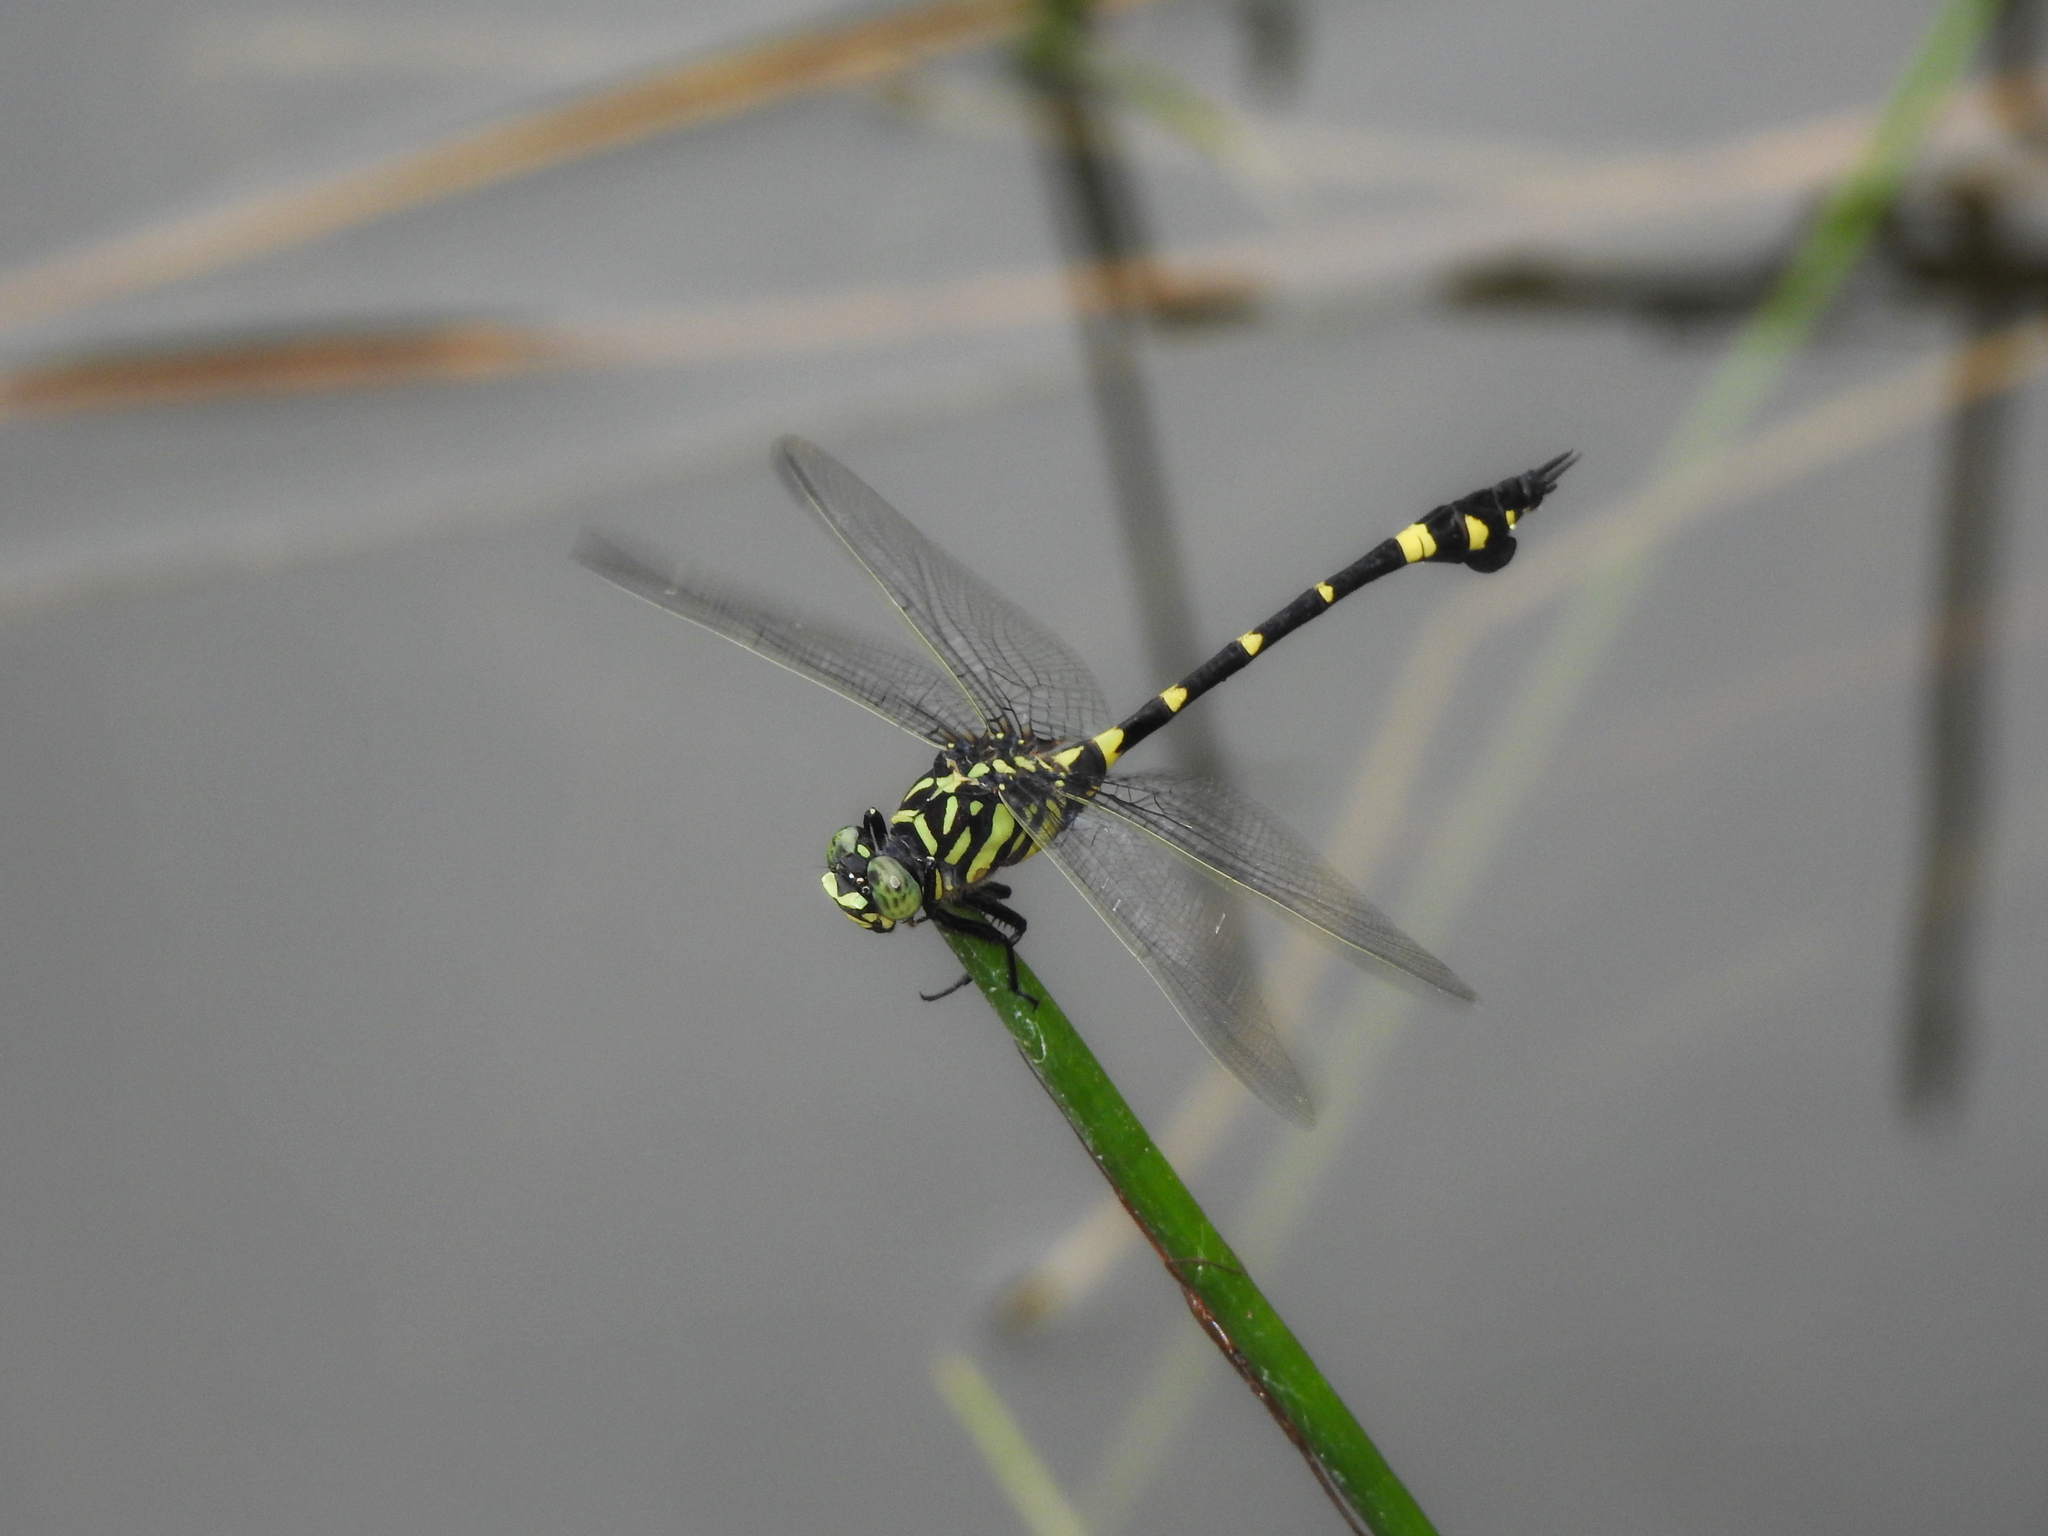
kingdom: Animalia
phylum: Arthropoda
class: Insecta
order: Odonata
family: Gomphidae
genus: Ictinogomphus
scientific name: Ictinogomphus rapax
